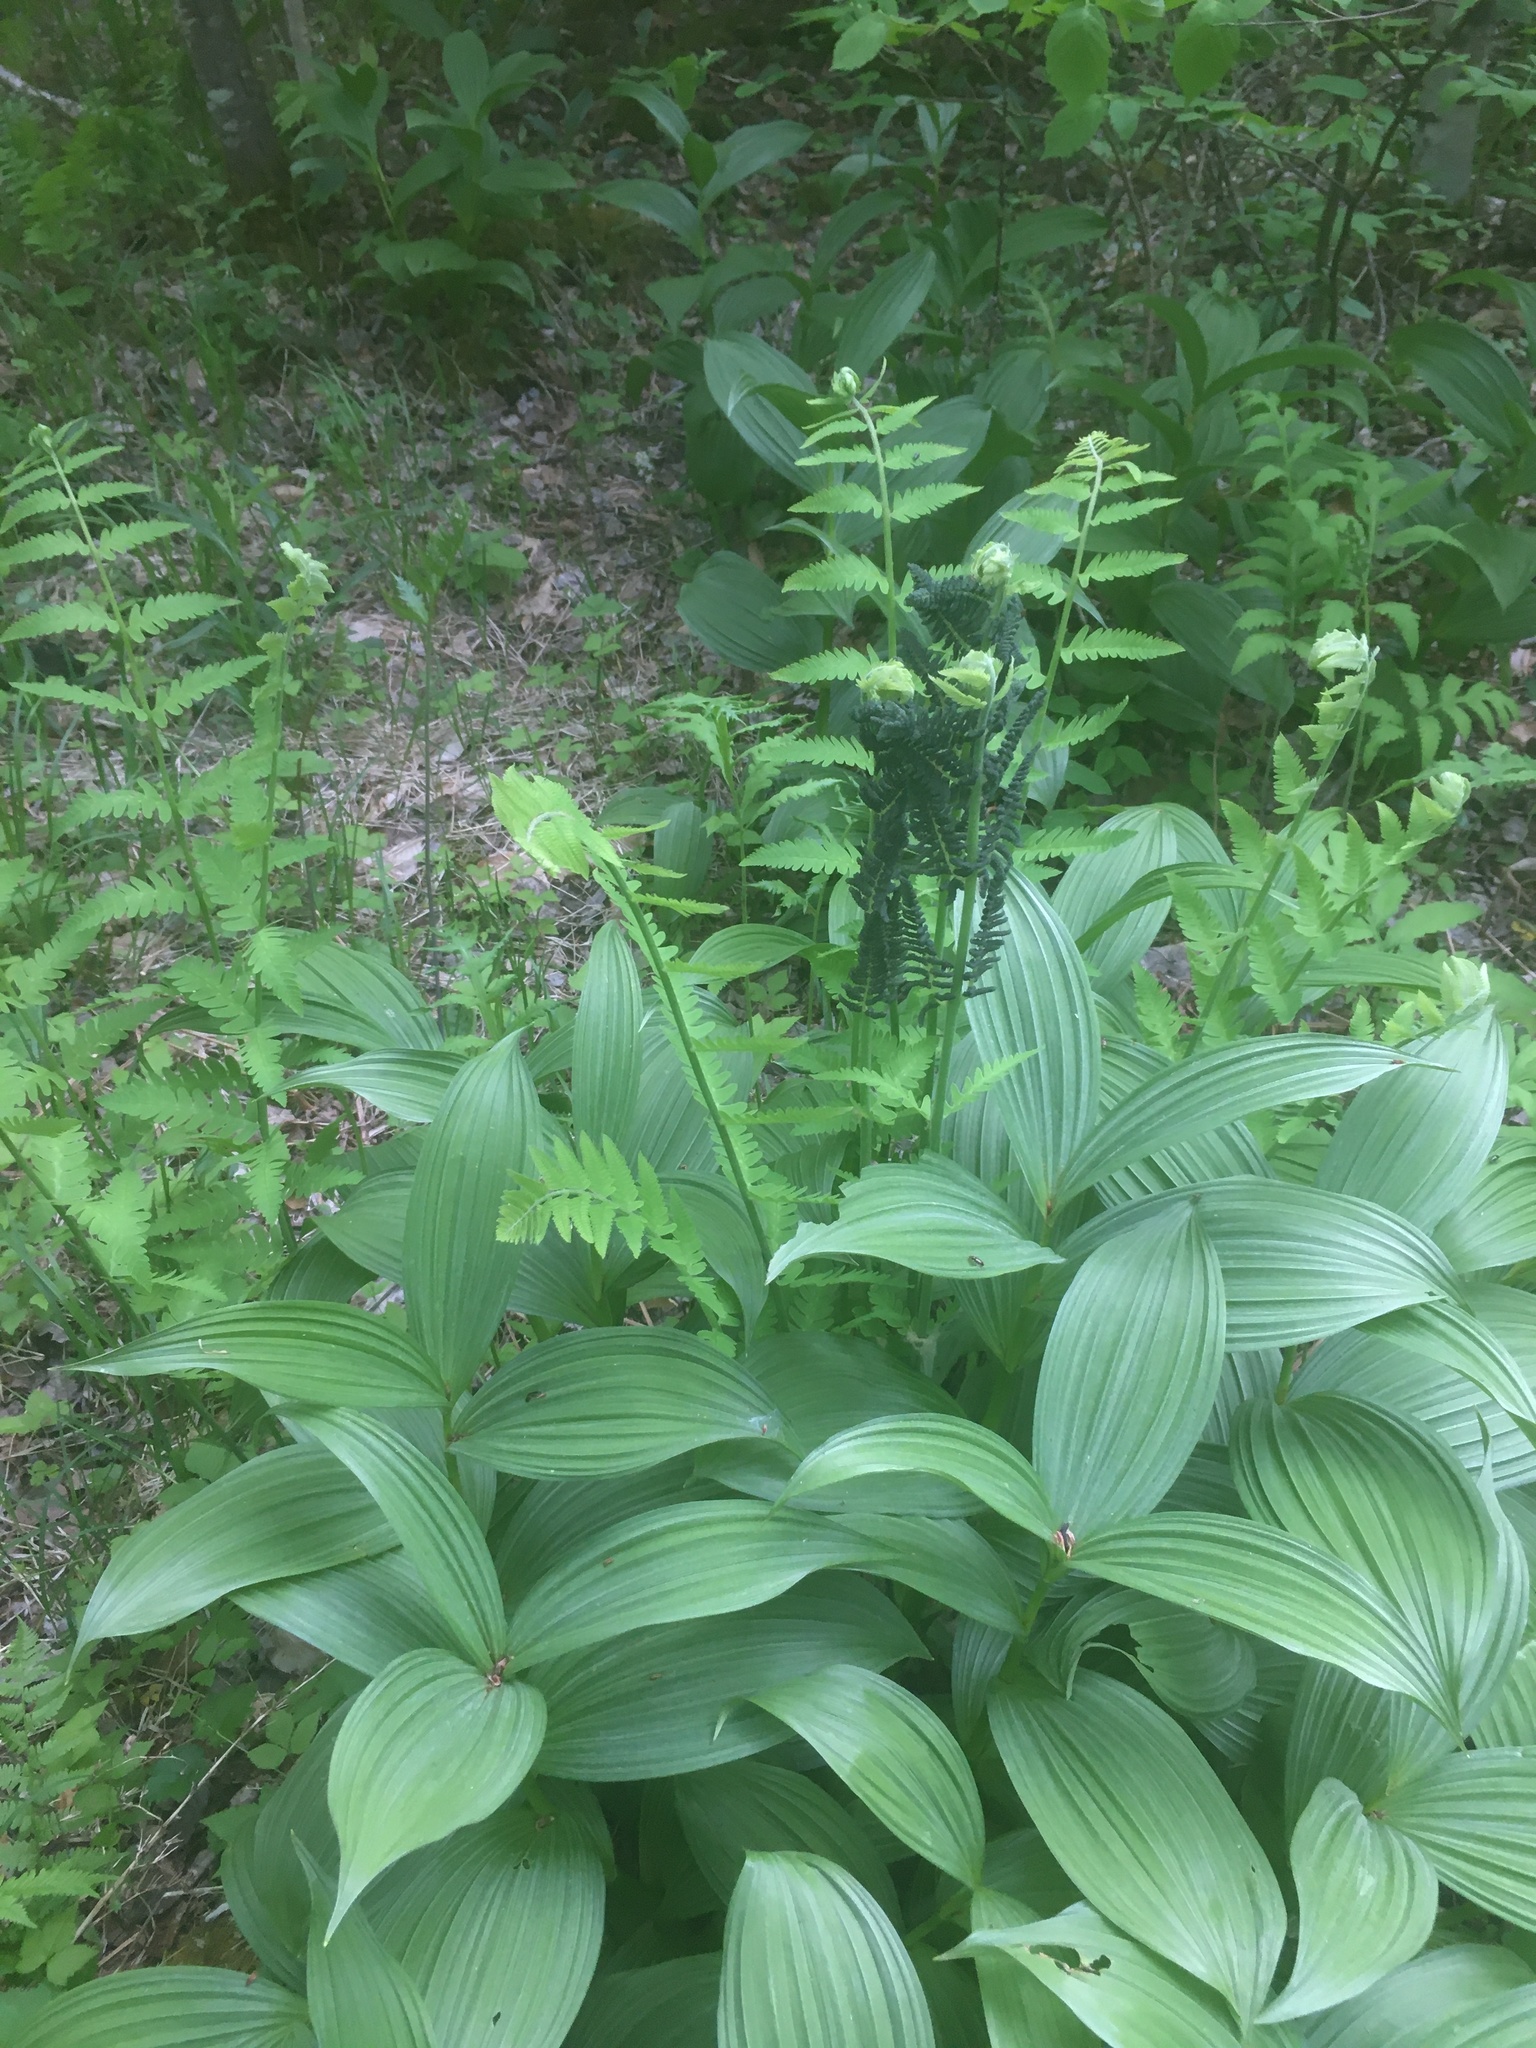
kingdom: Plantae
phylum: Tracheophyta
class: Polypodiopsida
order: Osmundales
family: Osmundaceae
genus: Claytosmunda
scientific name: Claytosmunda claytoniana
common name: Clayton's fern
